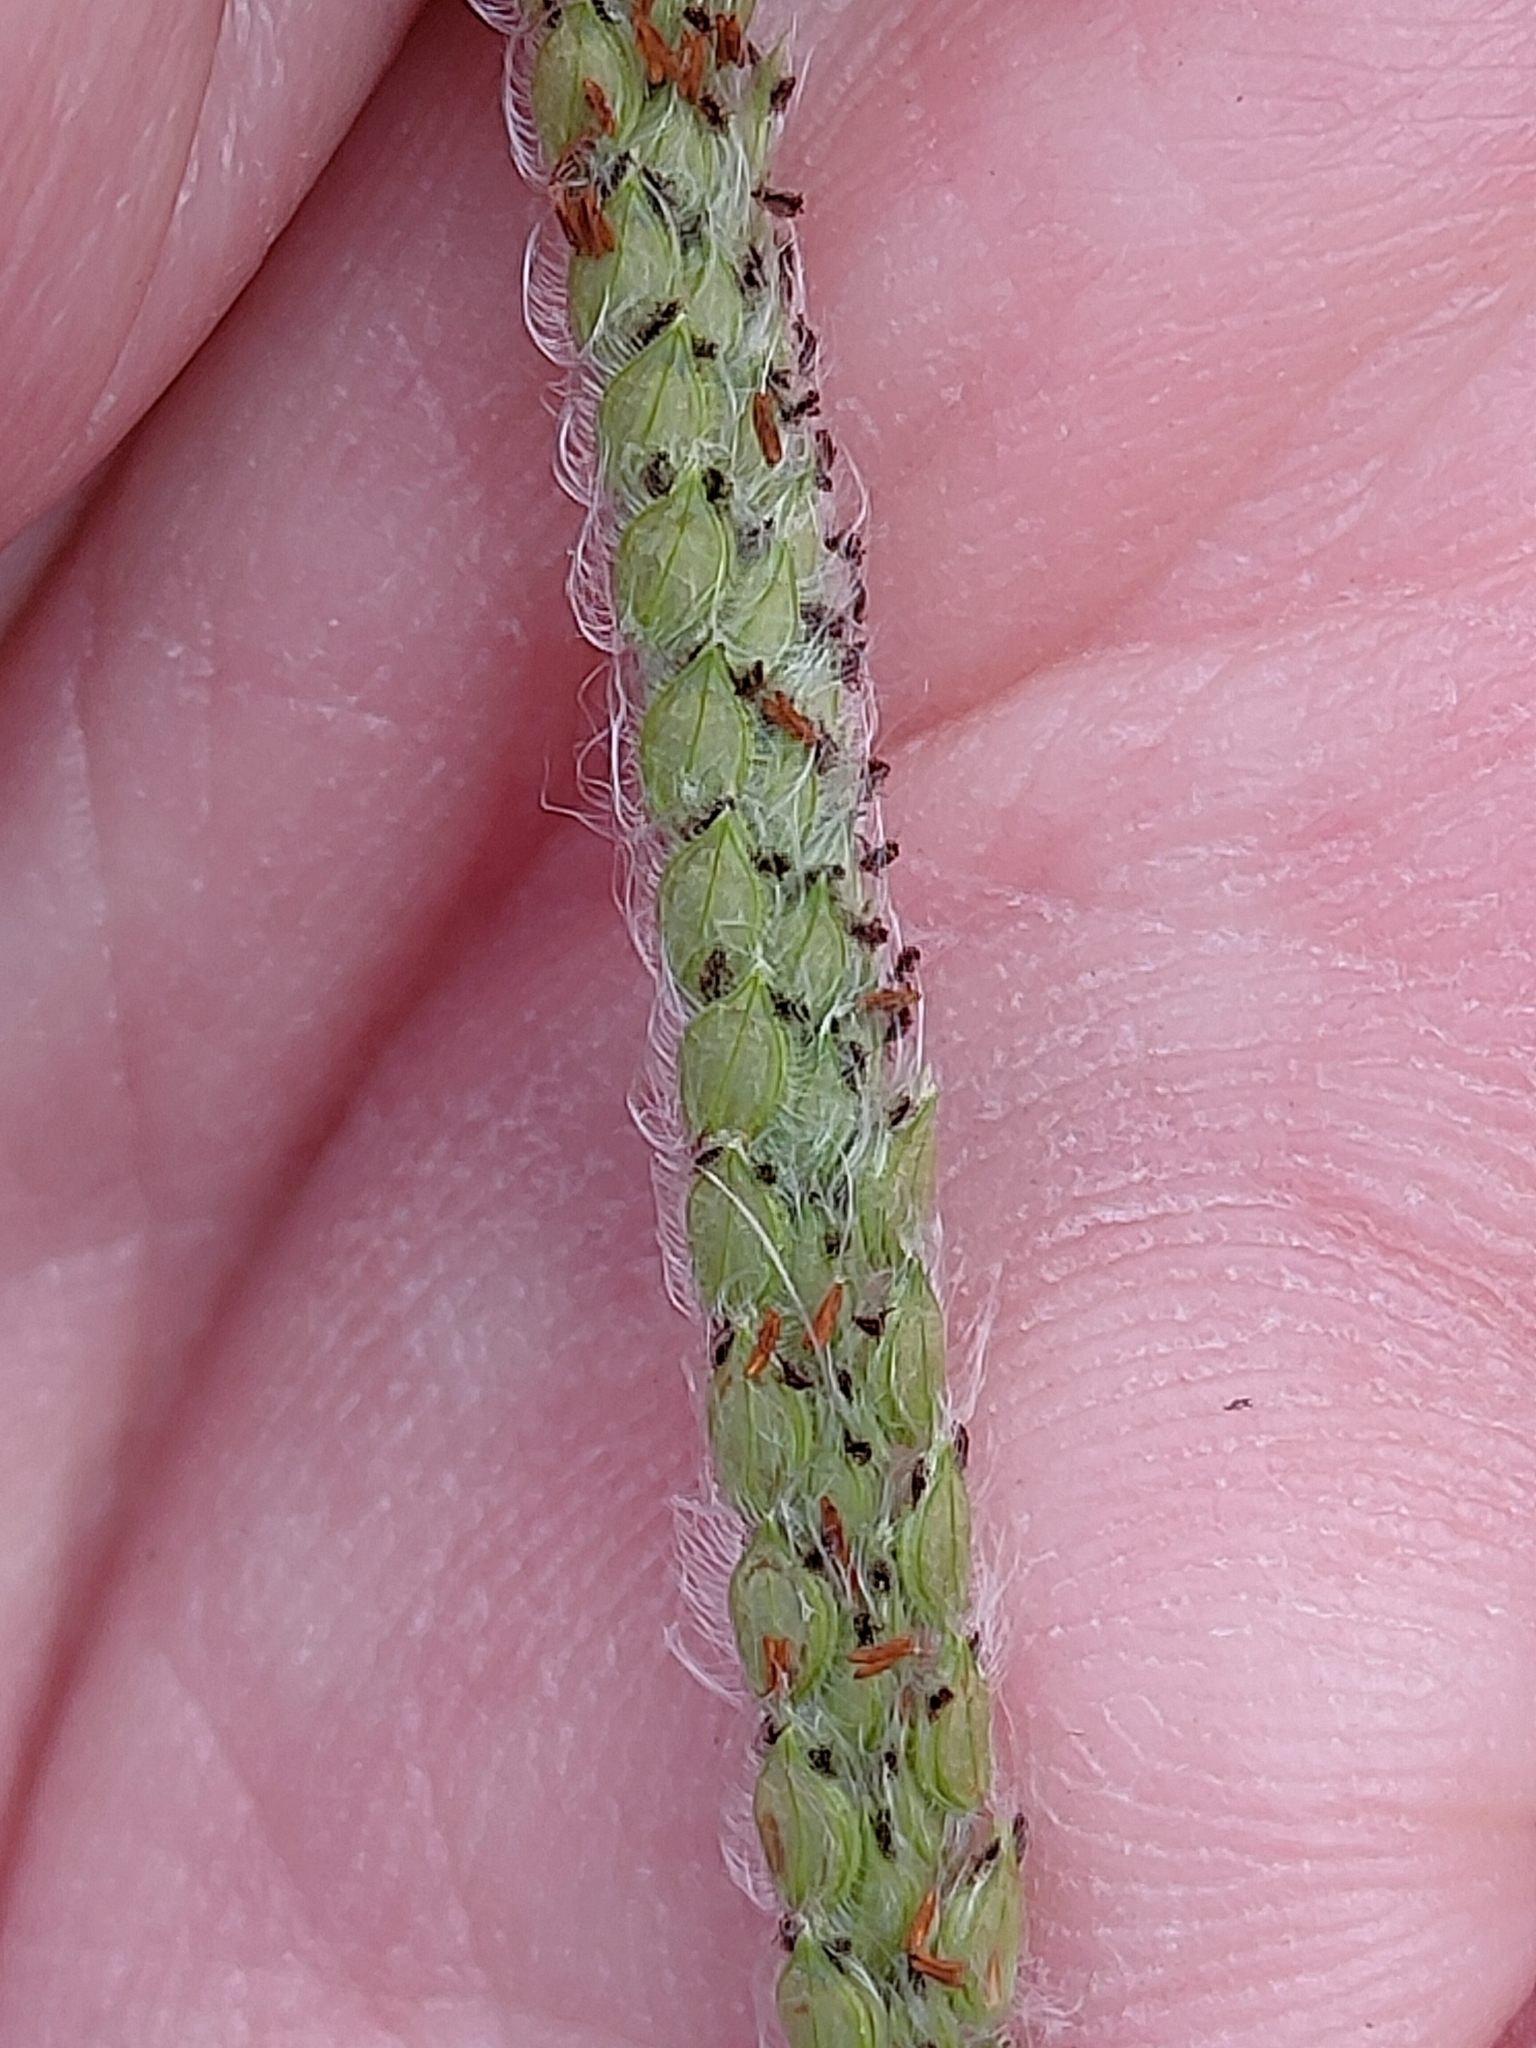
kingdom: Plantae
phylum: Tracheophyta
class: Liliopsida
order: Poales
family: Poaceae
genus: Paspalum
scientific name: Paspalum urvillei
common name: Vasey's grass
